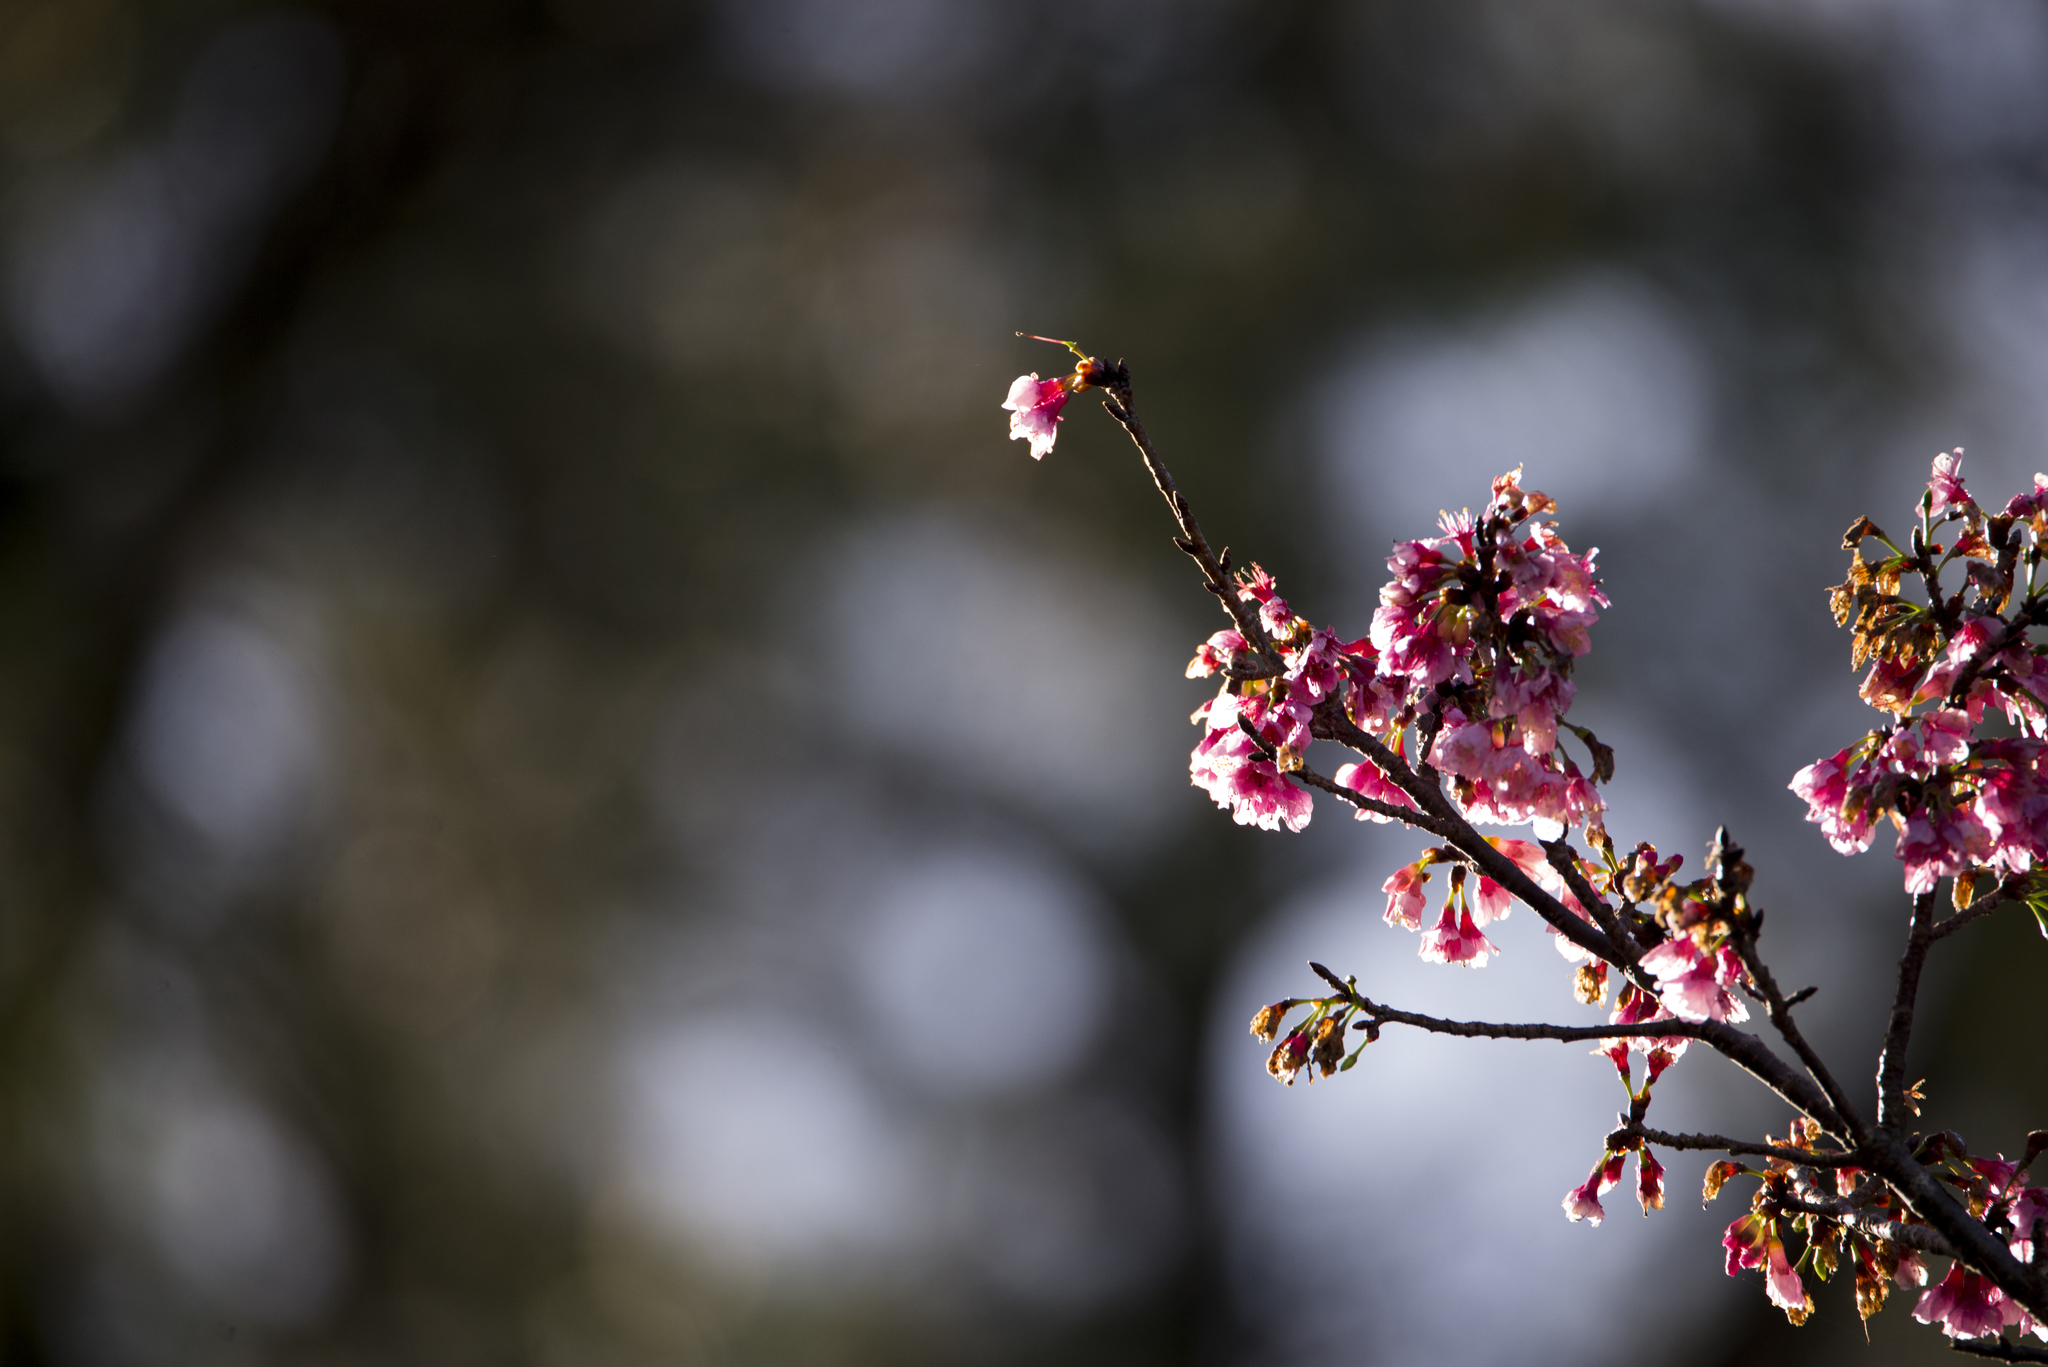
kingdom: Plantae
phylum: Tracheophyta
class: Magnoliopsida
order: Rosales
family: Rosaceae
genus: Prunus
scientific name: Prunus campanulata
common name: Taiwan flowering cherry
